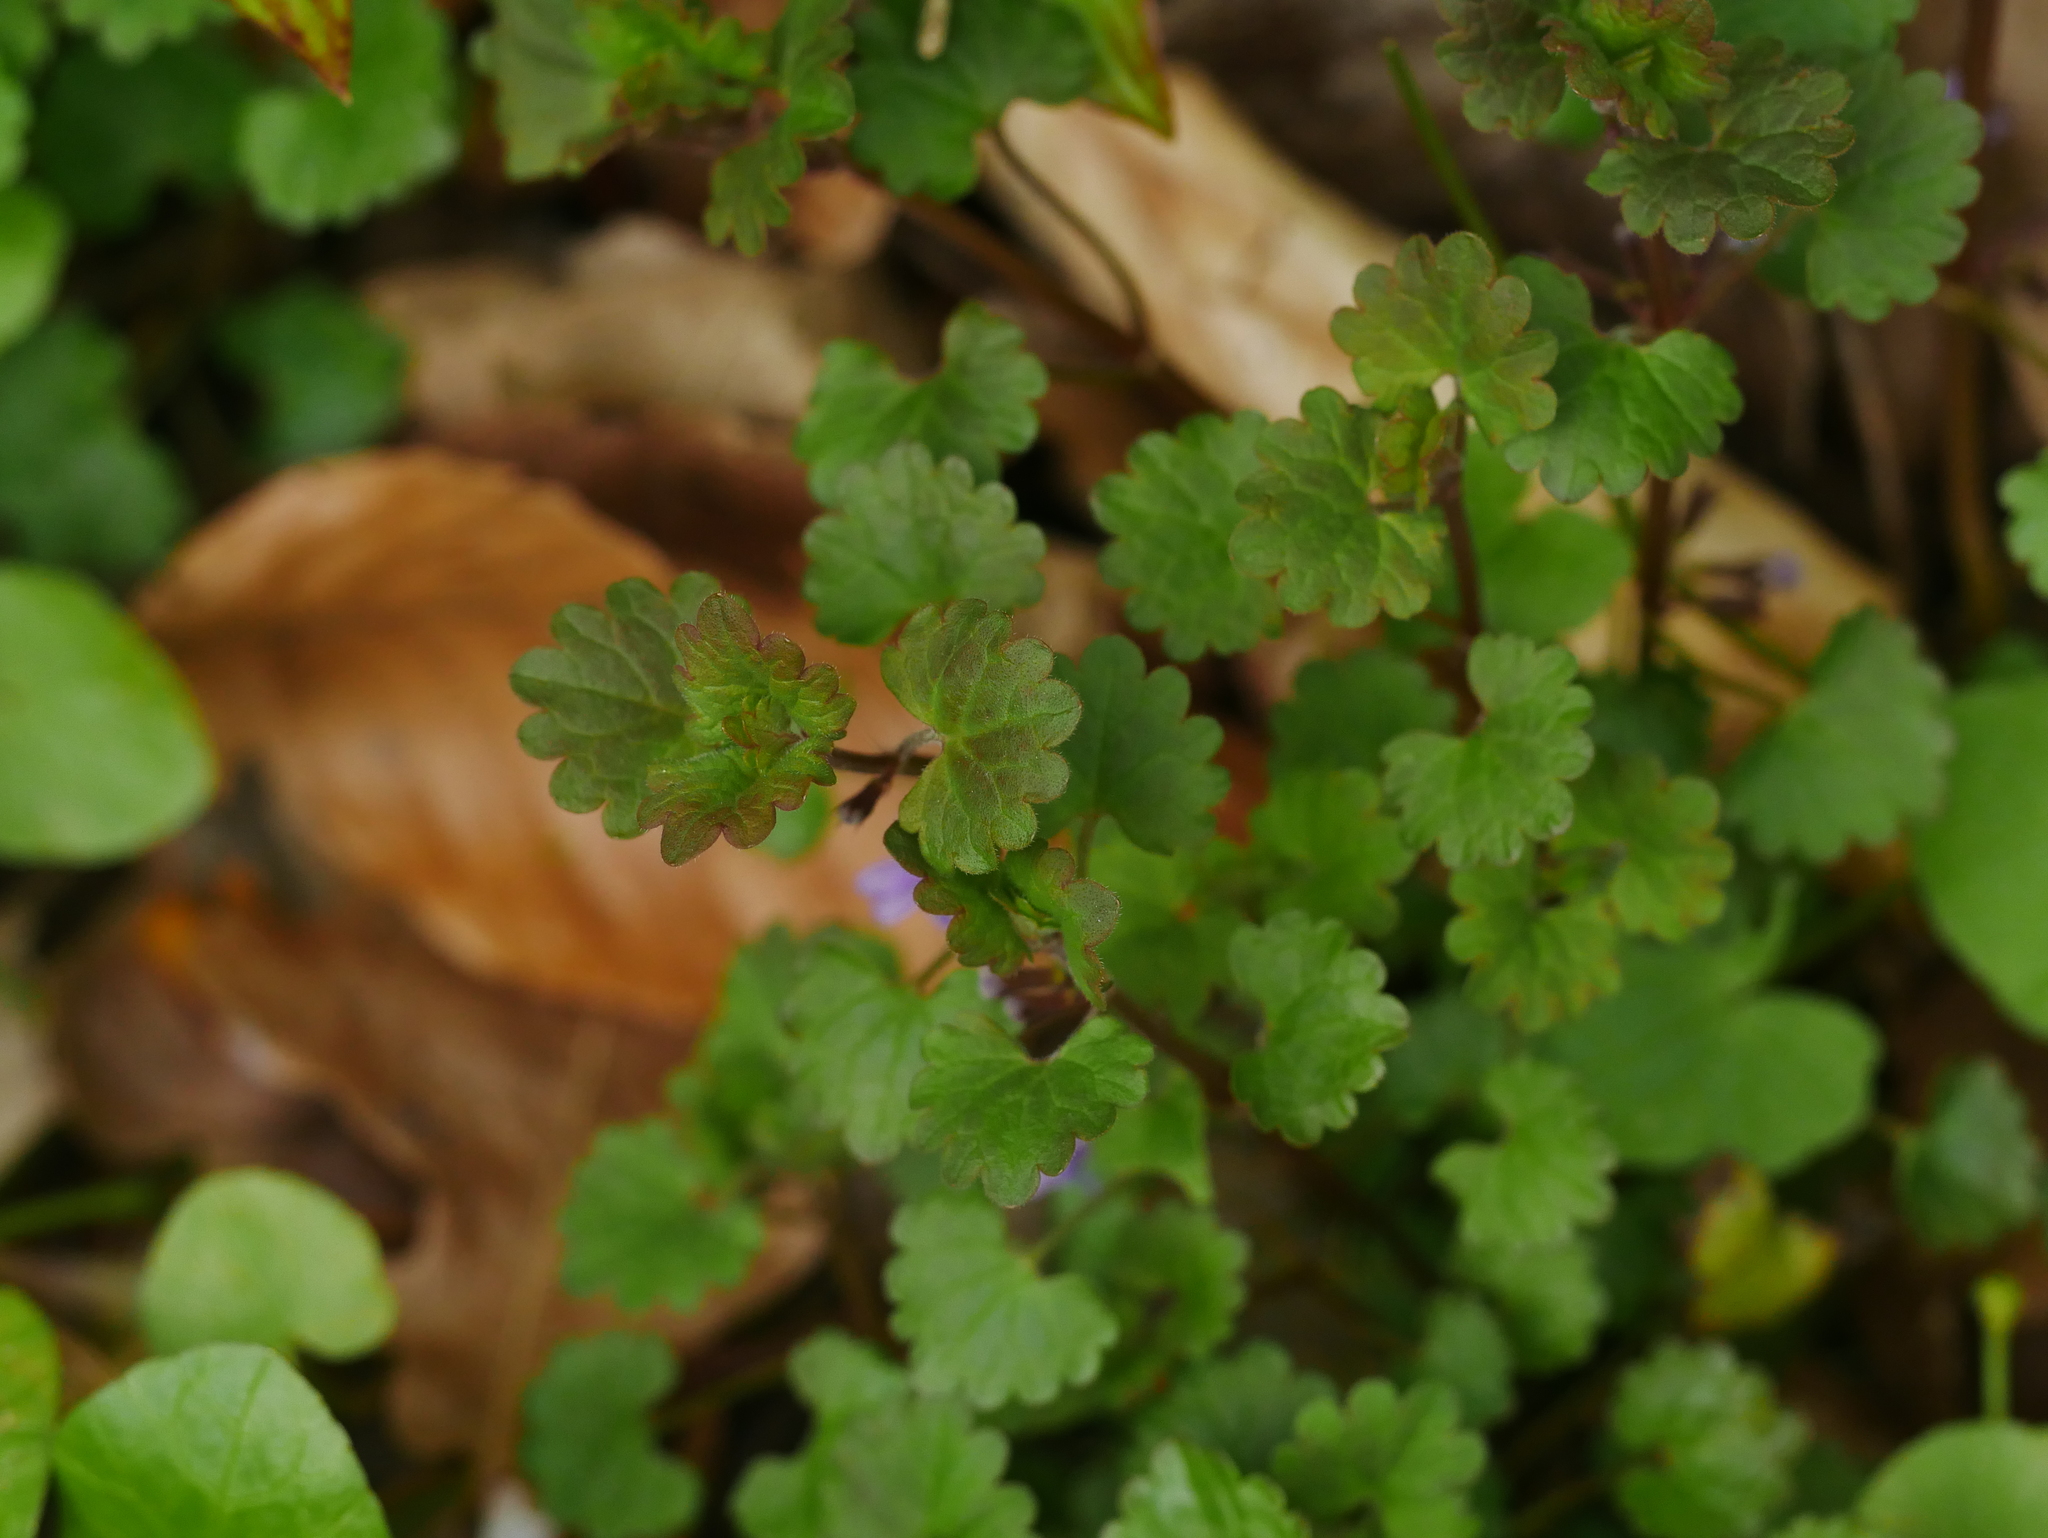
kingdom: Plantae
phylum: Tracheophyta
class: Magnoliopsida
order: Lamiales
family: Lamiaceae
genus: Glechoma
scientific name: Glechoma hederacea
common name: Ground ivy
